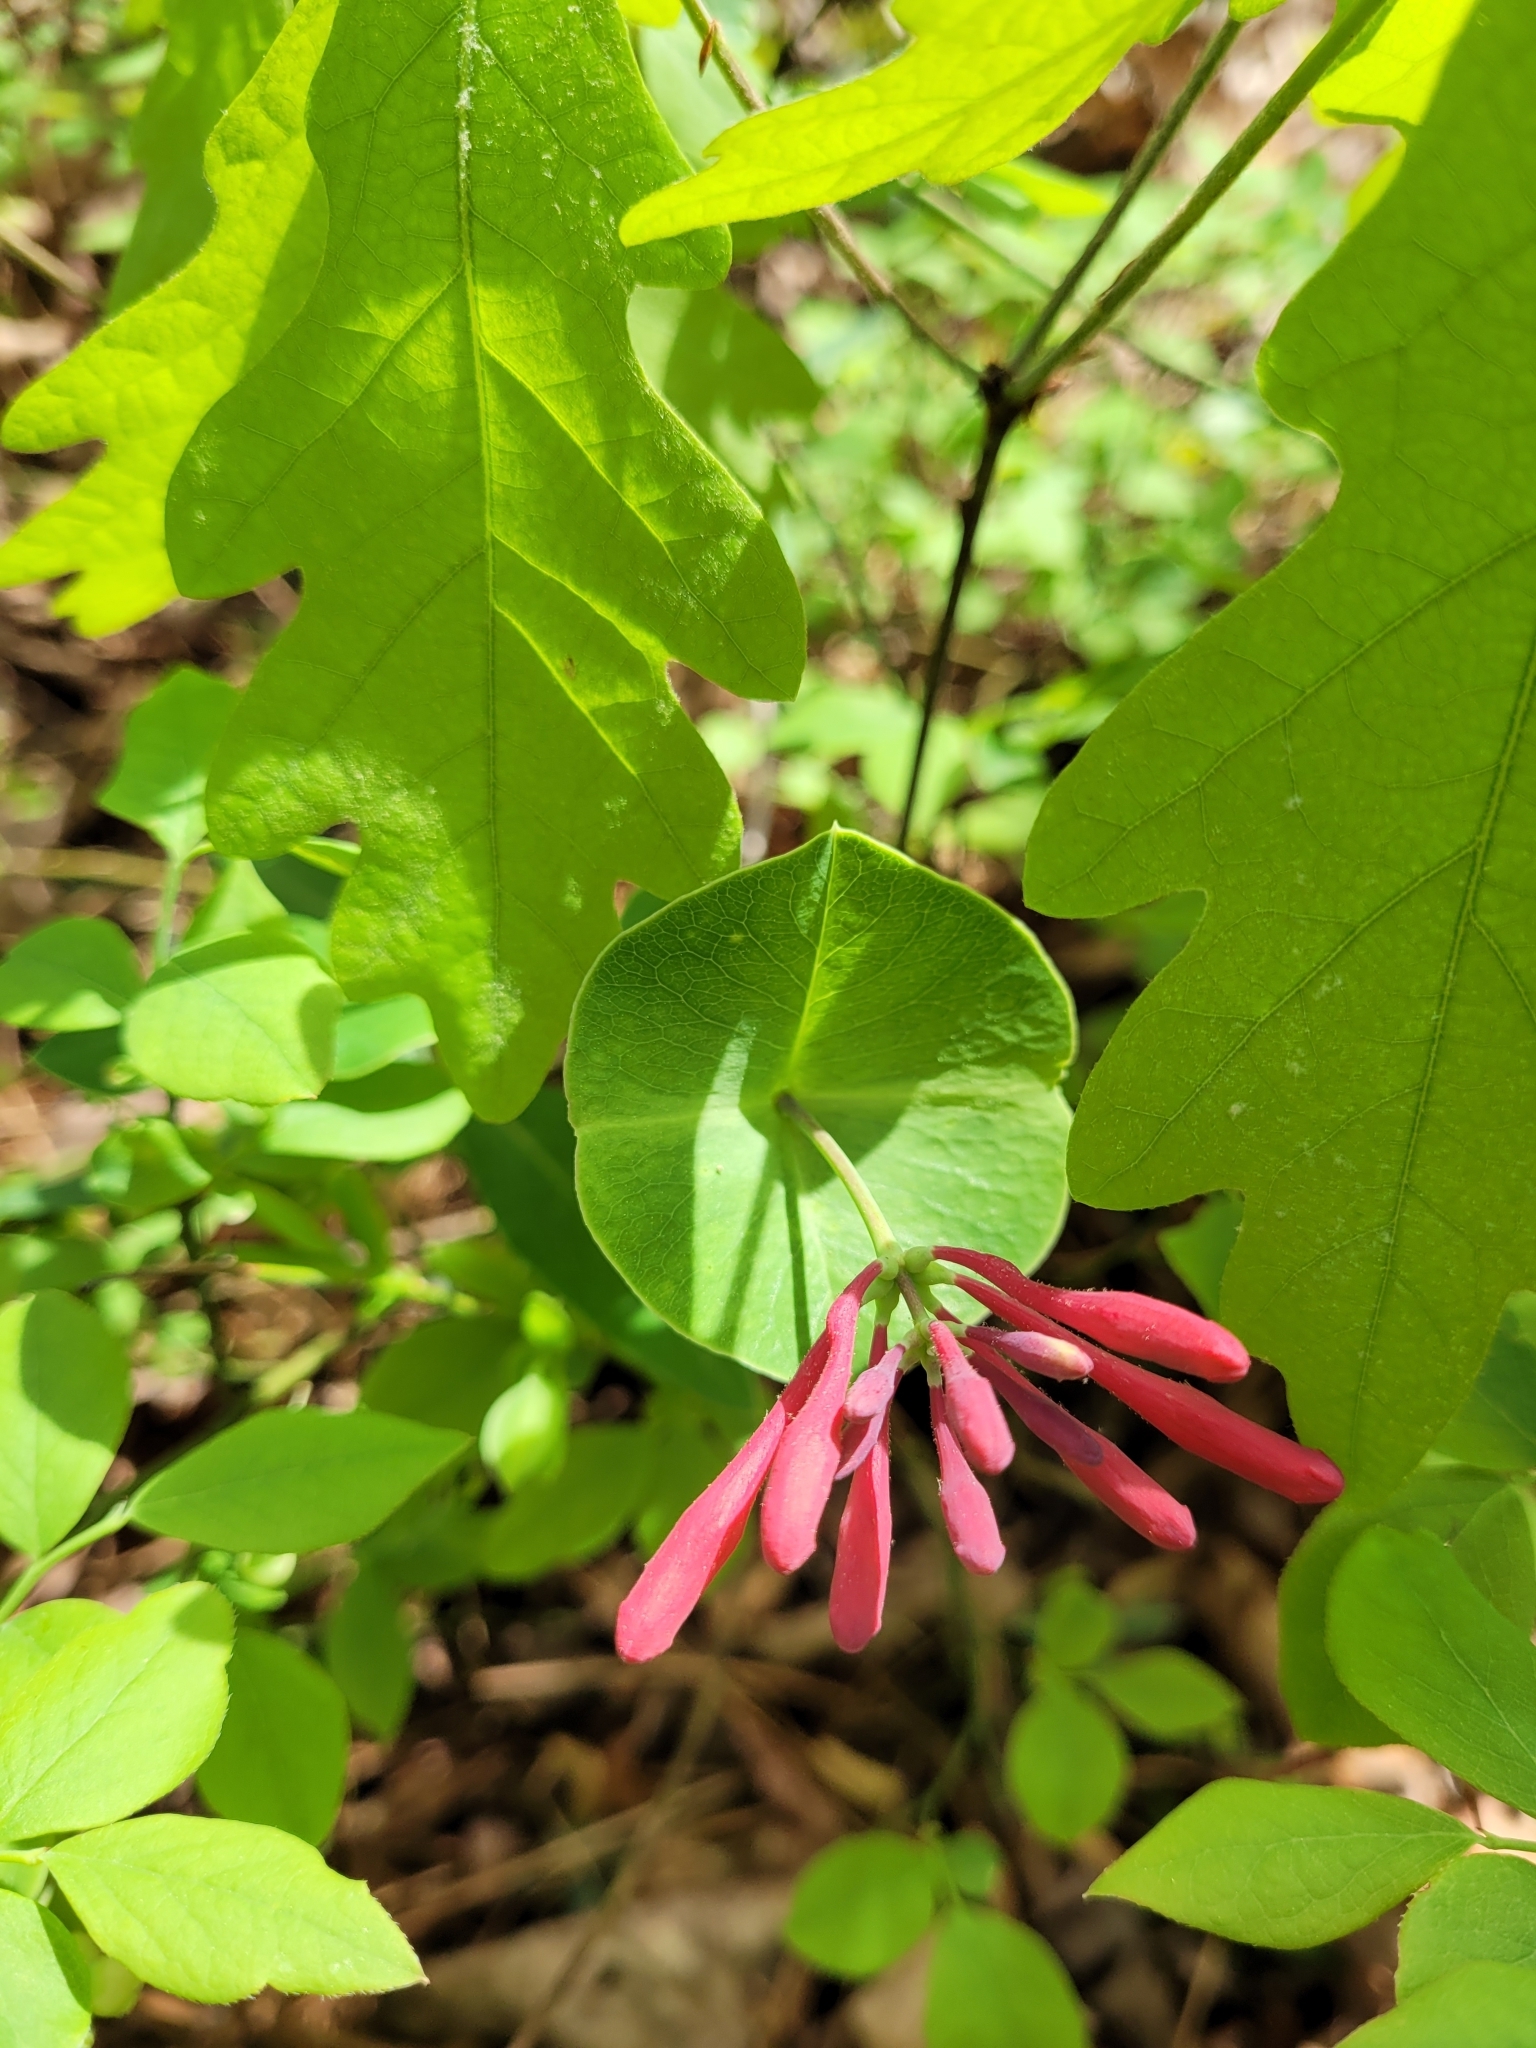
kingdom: Plantae
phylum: Tracheophyta
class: Magnoliopsida
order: Dipsacales
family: Caprifoliaceae
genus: Lonicera
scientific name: Lonicera sempervirens
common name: Coral honeysuckle
